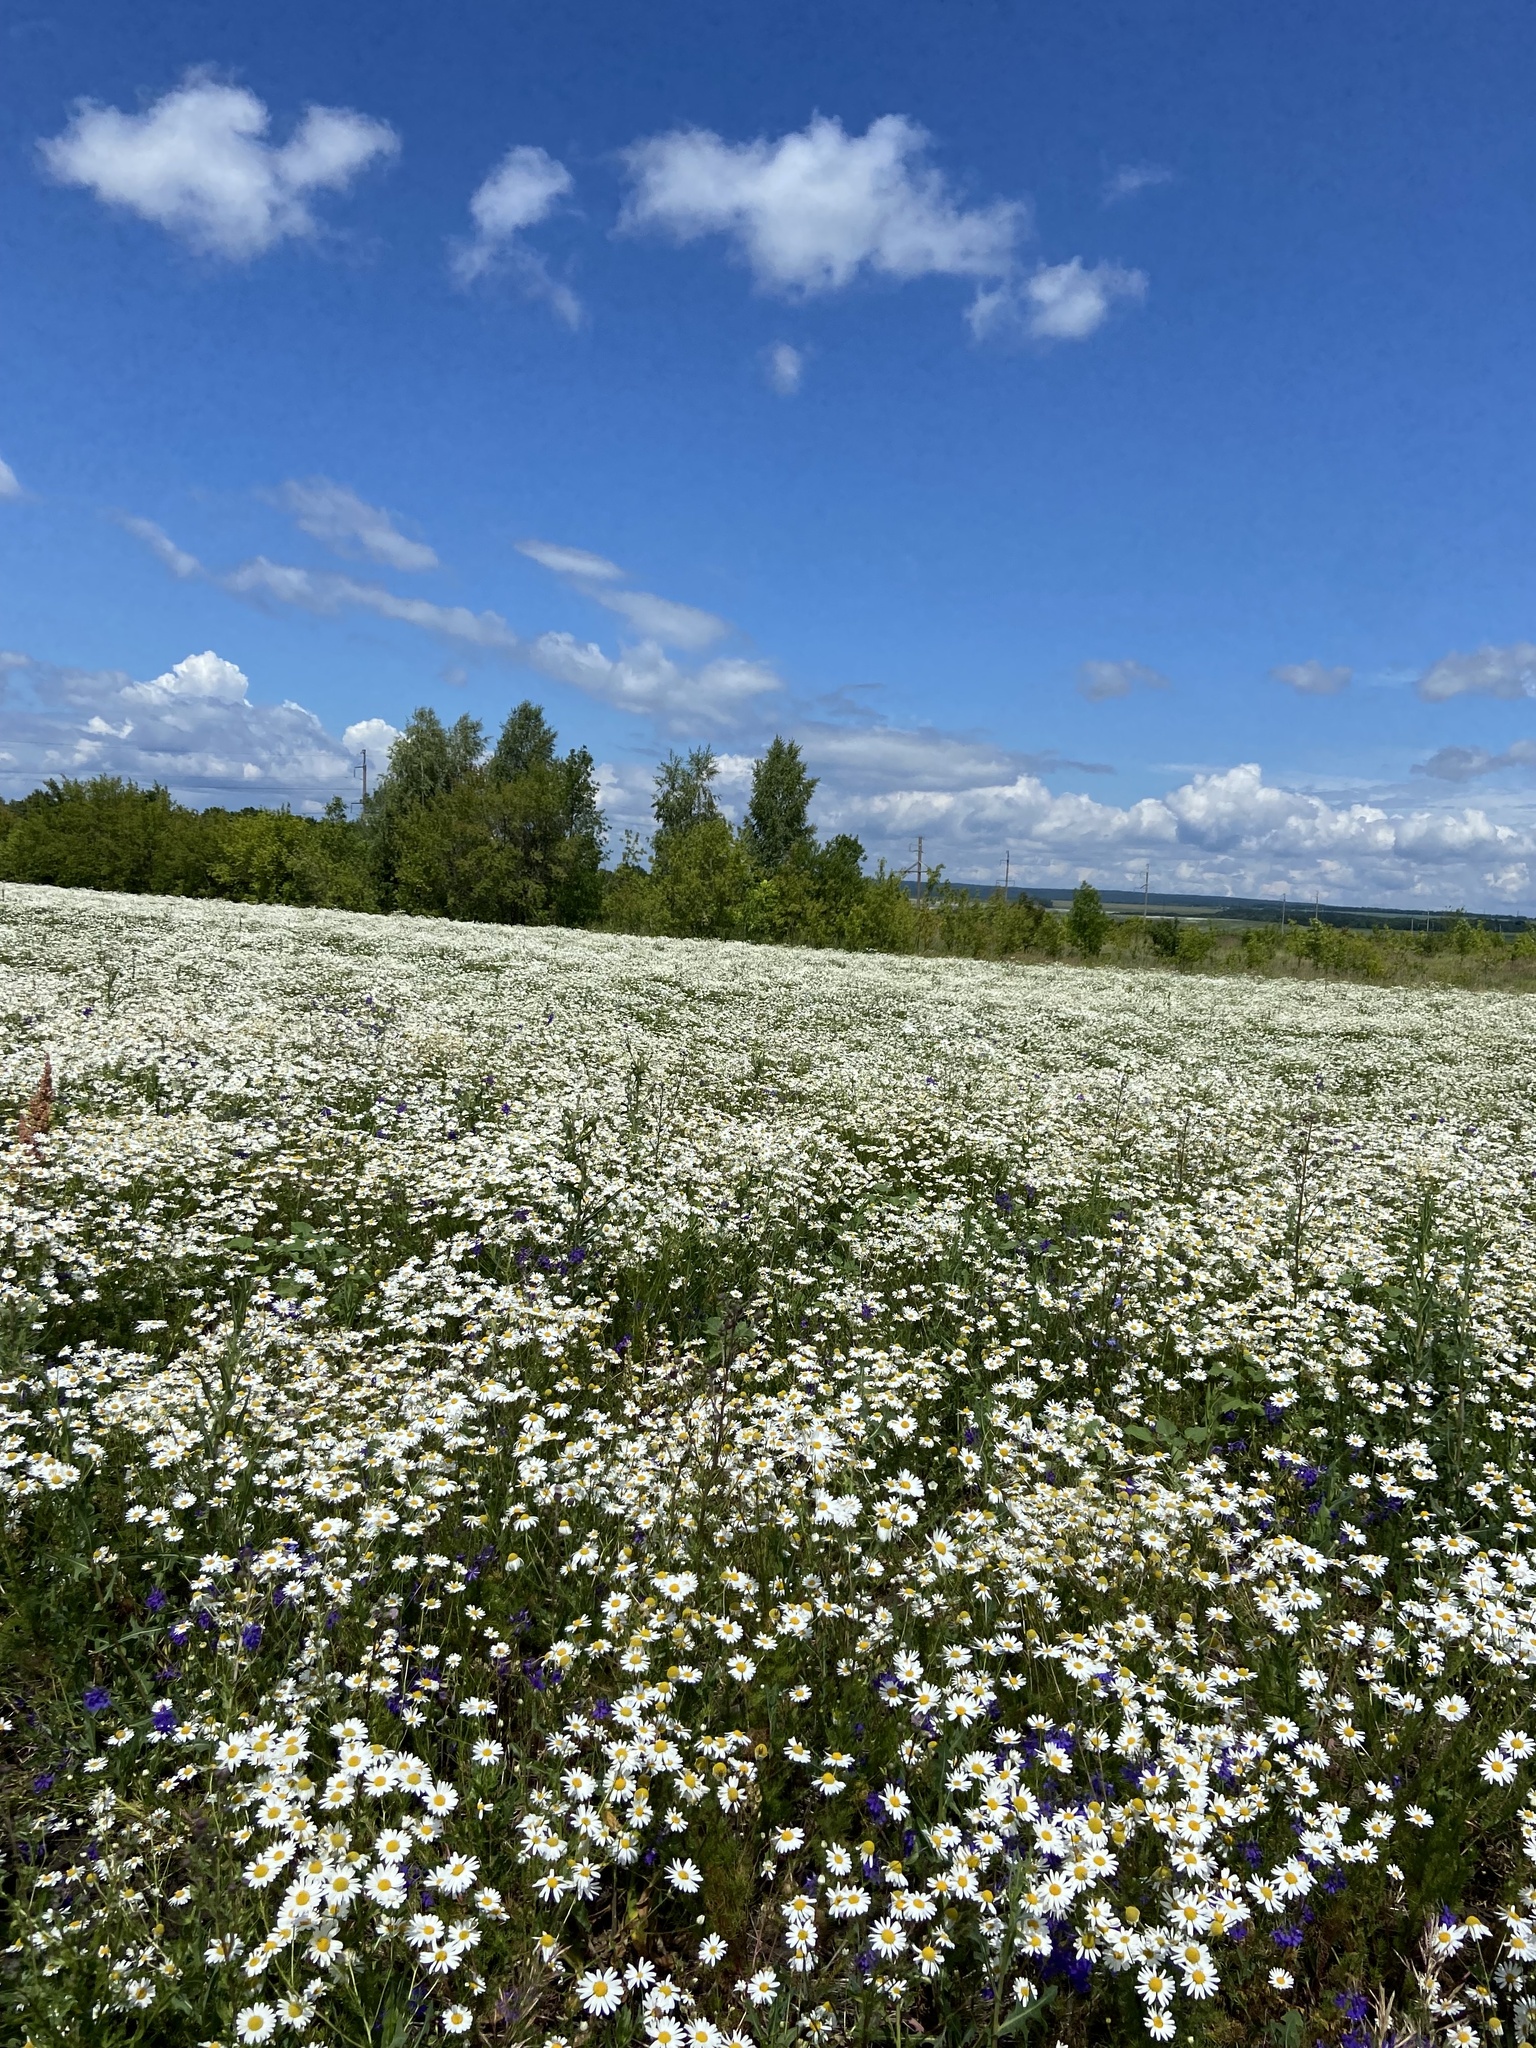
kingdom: Plantae
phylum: Tracheophyta
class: Magnoliopsida
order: Asterales
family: Asteraceae
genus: Tripleurospermum
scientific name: Tripleurospermum inodorum
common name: Scentless mayweed
